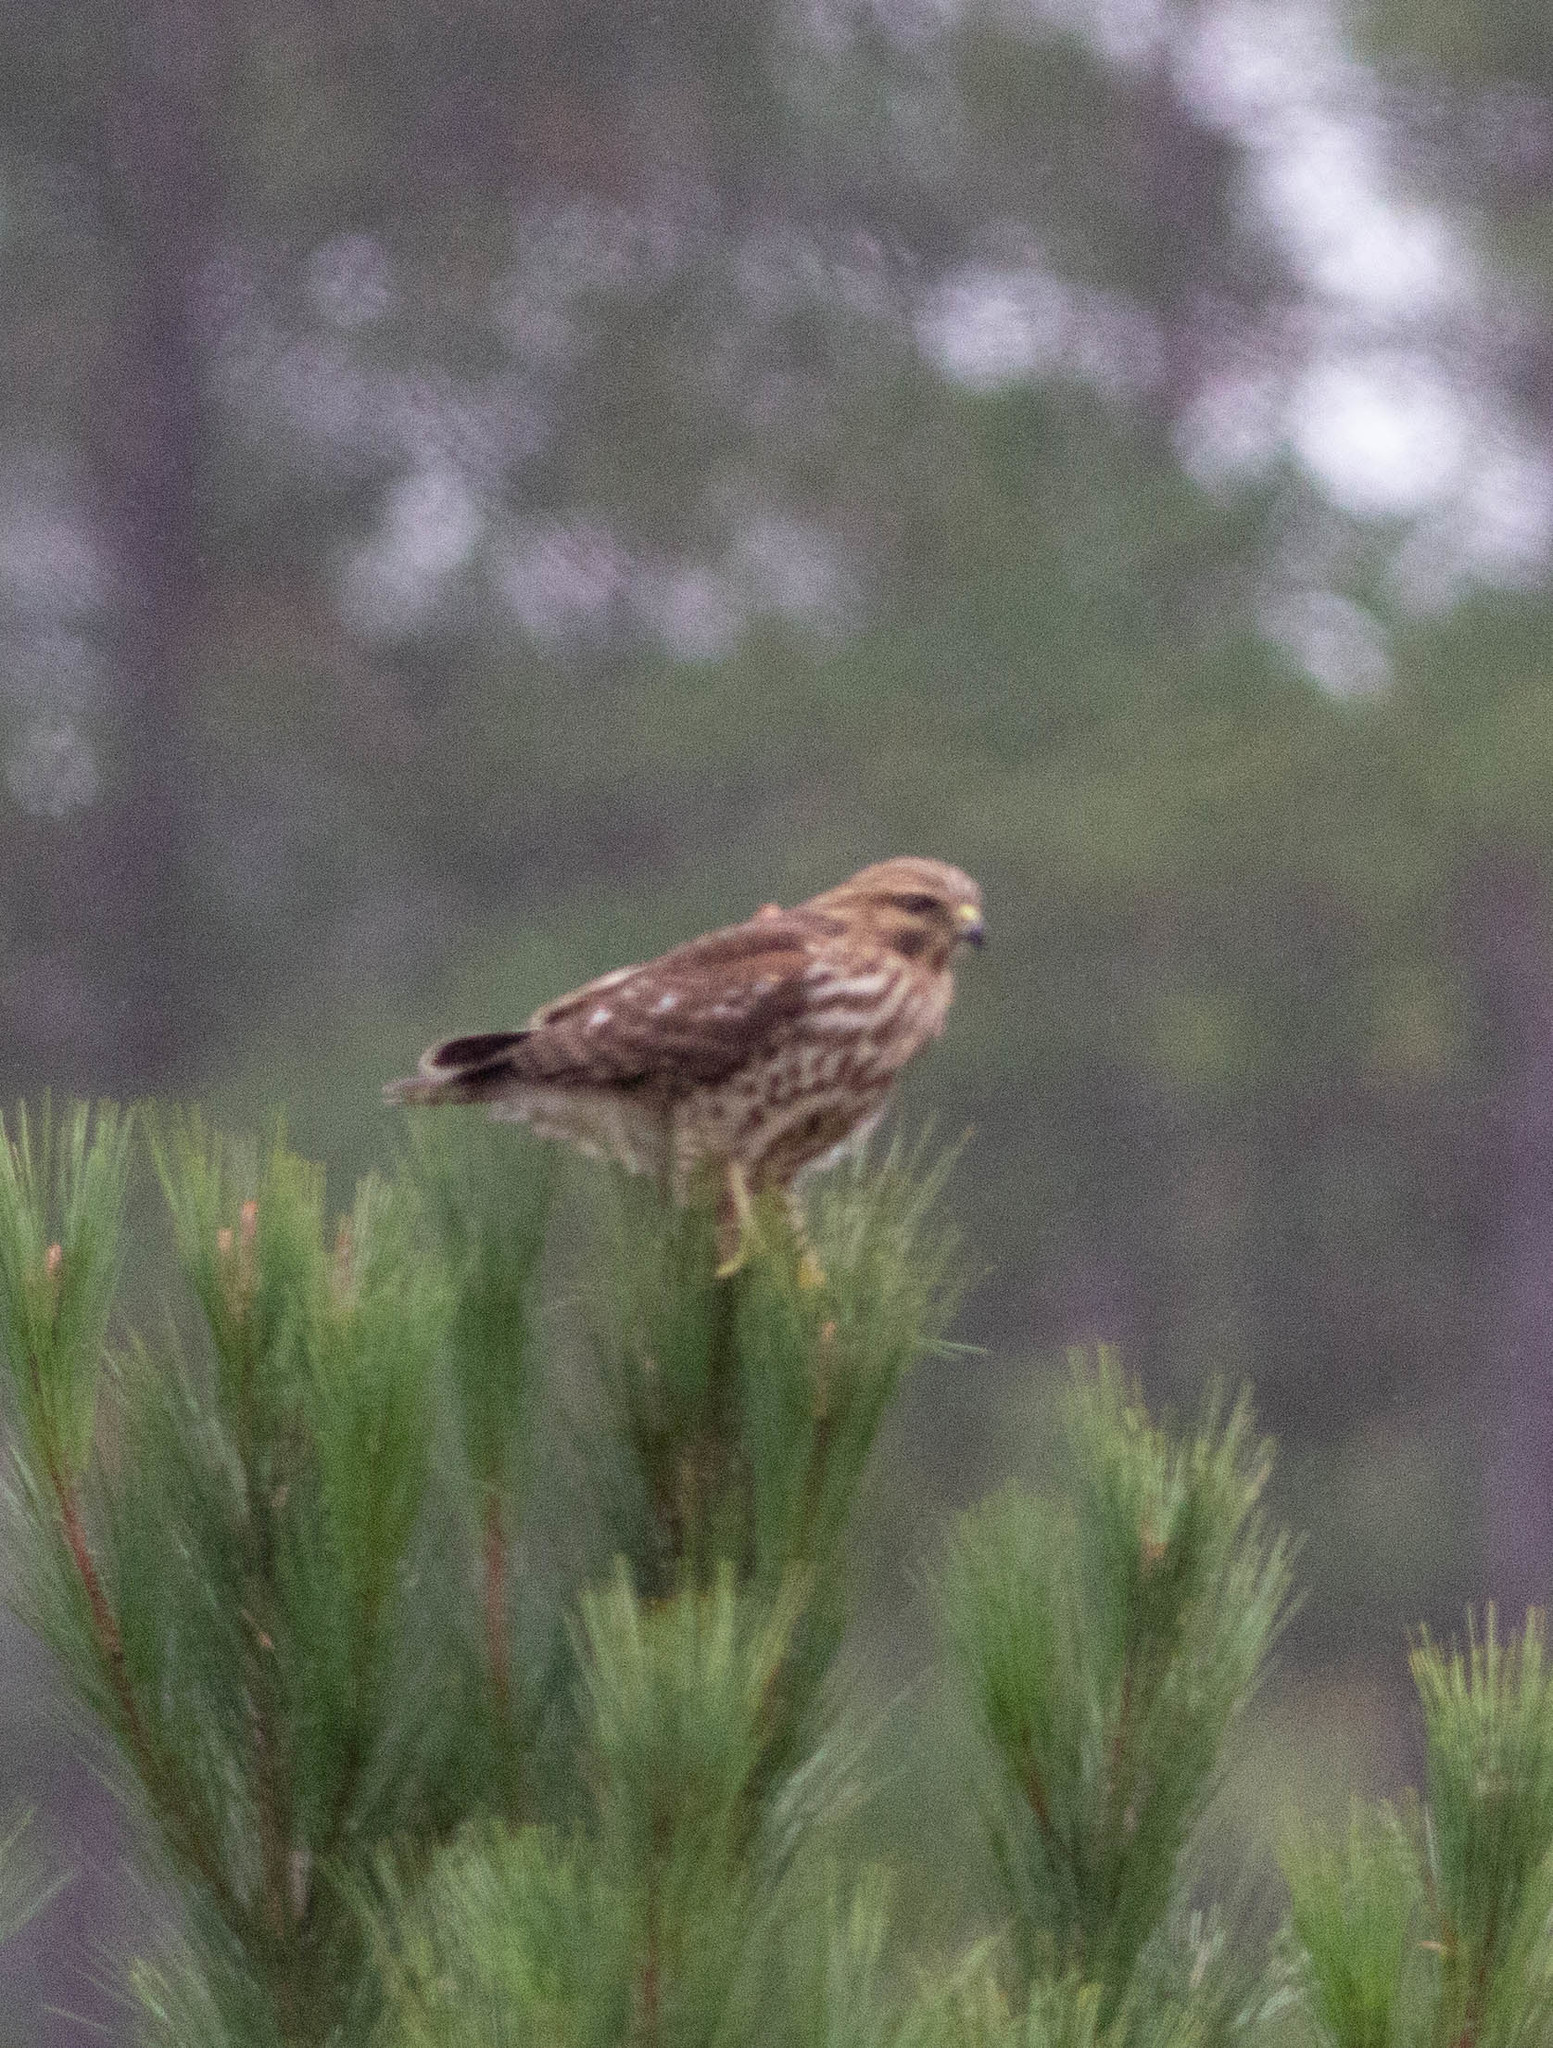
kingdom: Animalia
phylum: Chordata
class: Aves
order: Accipitriformes
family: Accipitridae
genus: Buteo
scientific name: Buteo lineatus
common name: Red-shouldered hawk
